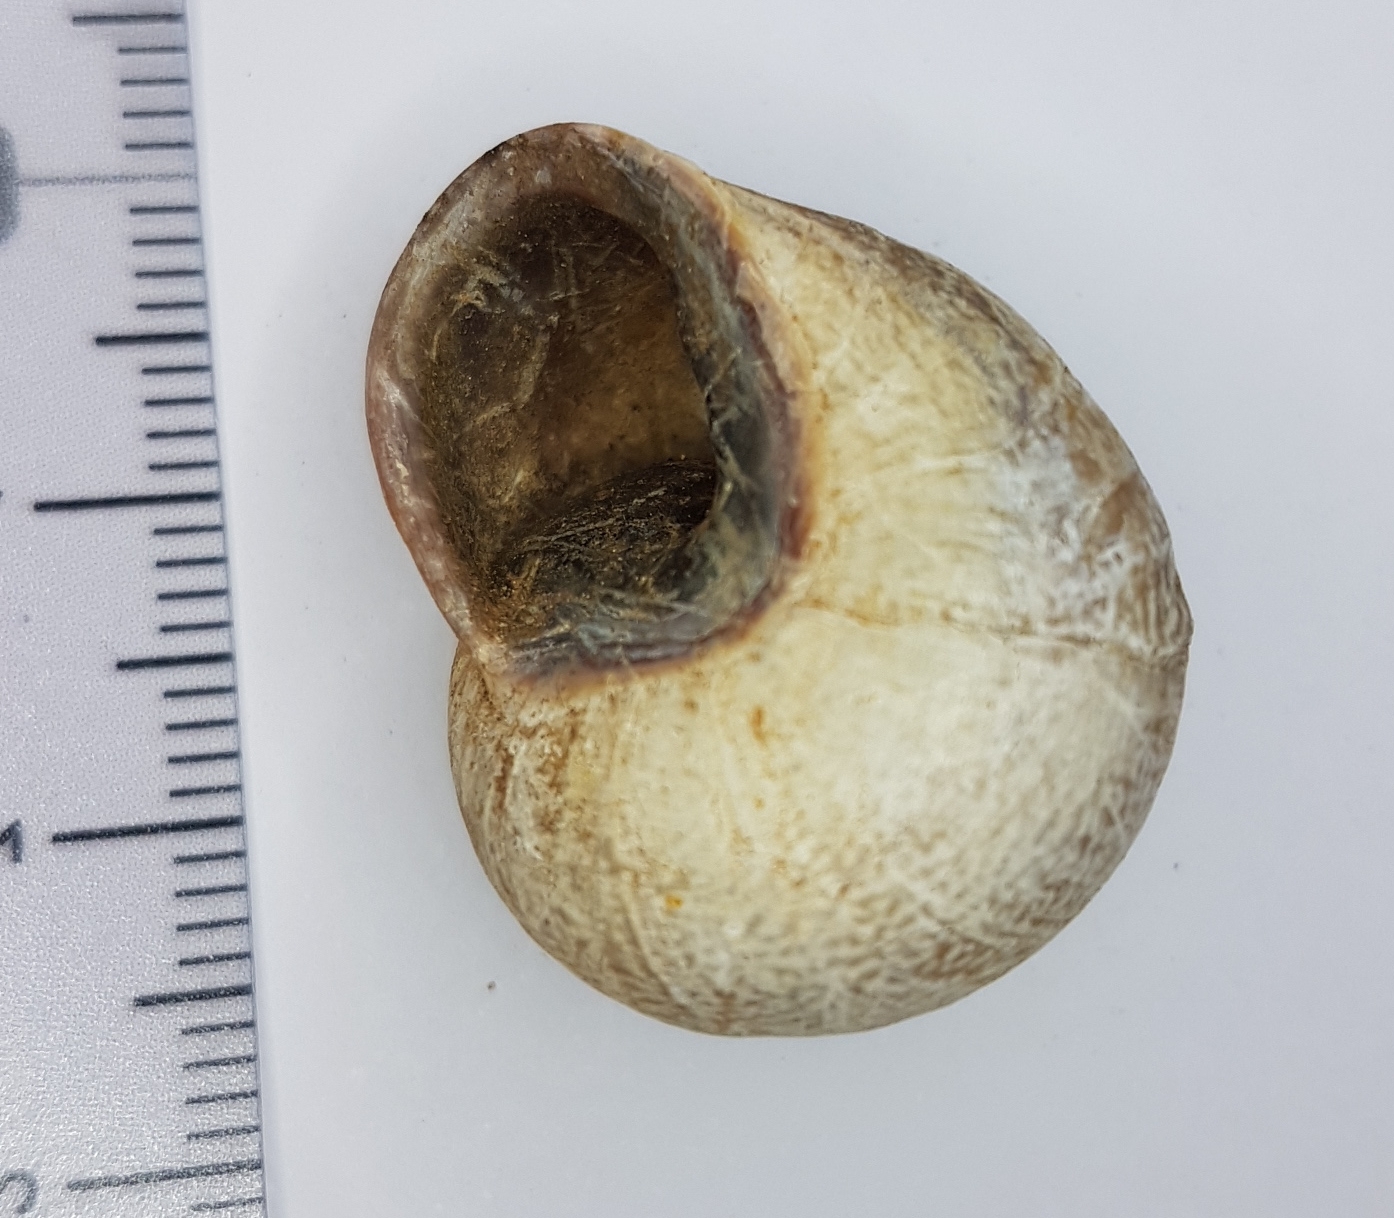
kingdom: Animalia
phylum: Mollusca
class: Gastropoda
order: Stylommatophora
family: Helicidae
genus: Otala
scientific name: Otala lactea
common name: Milk snail
